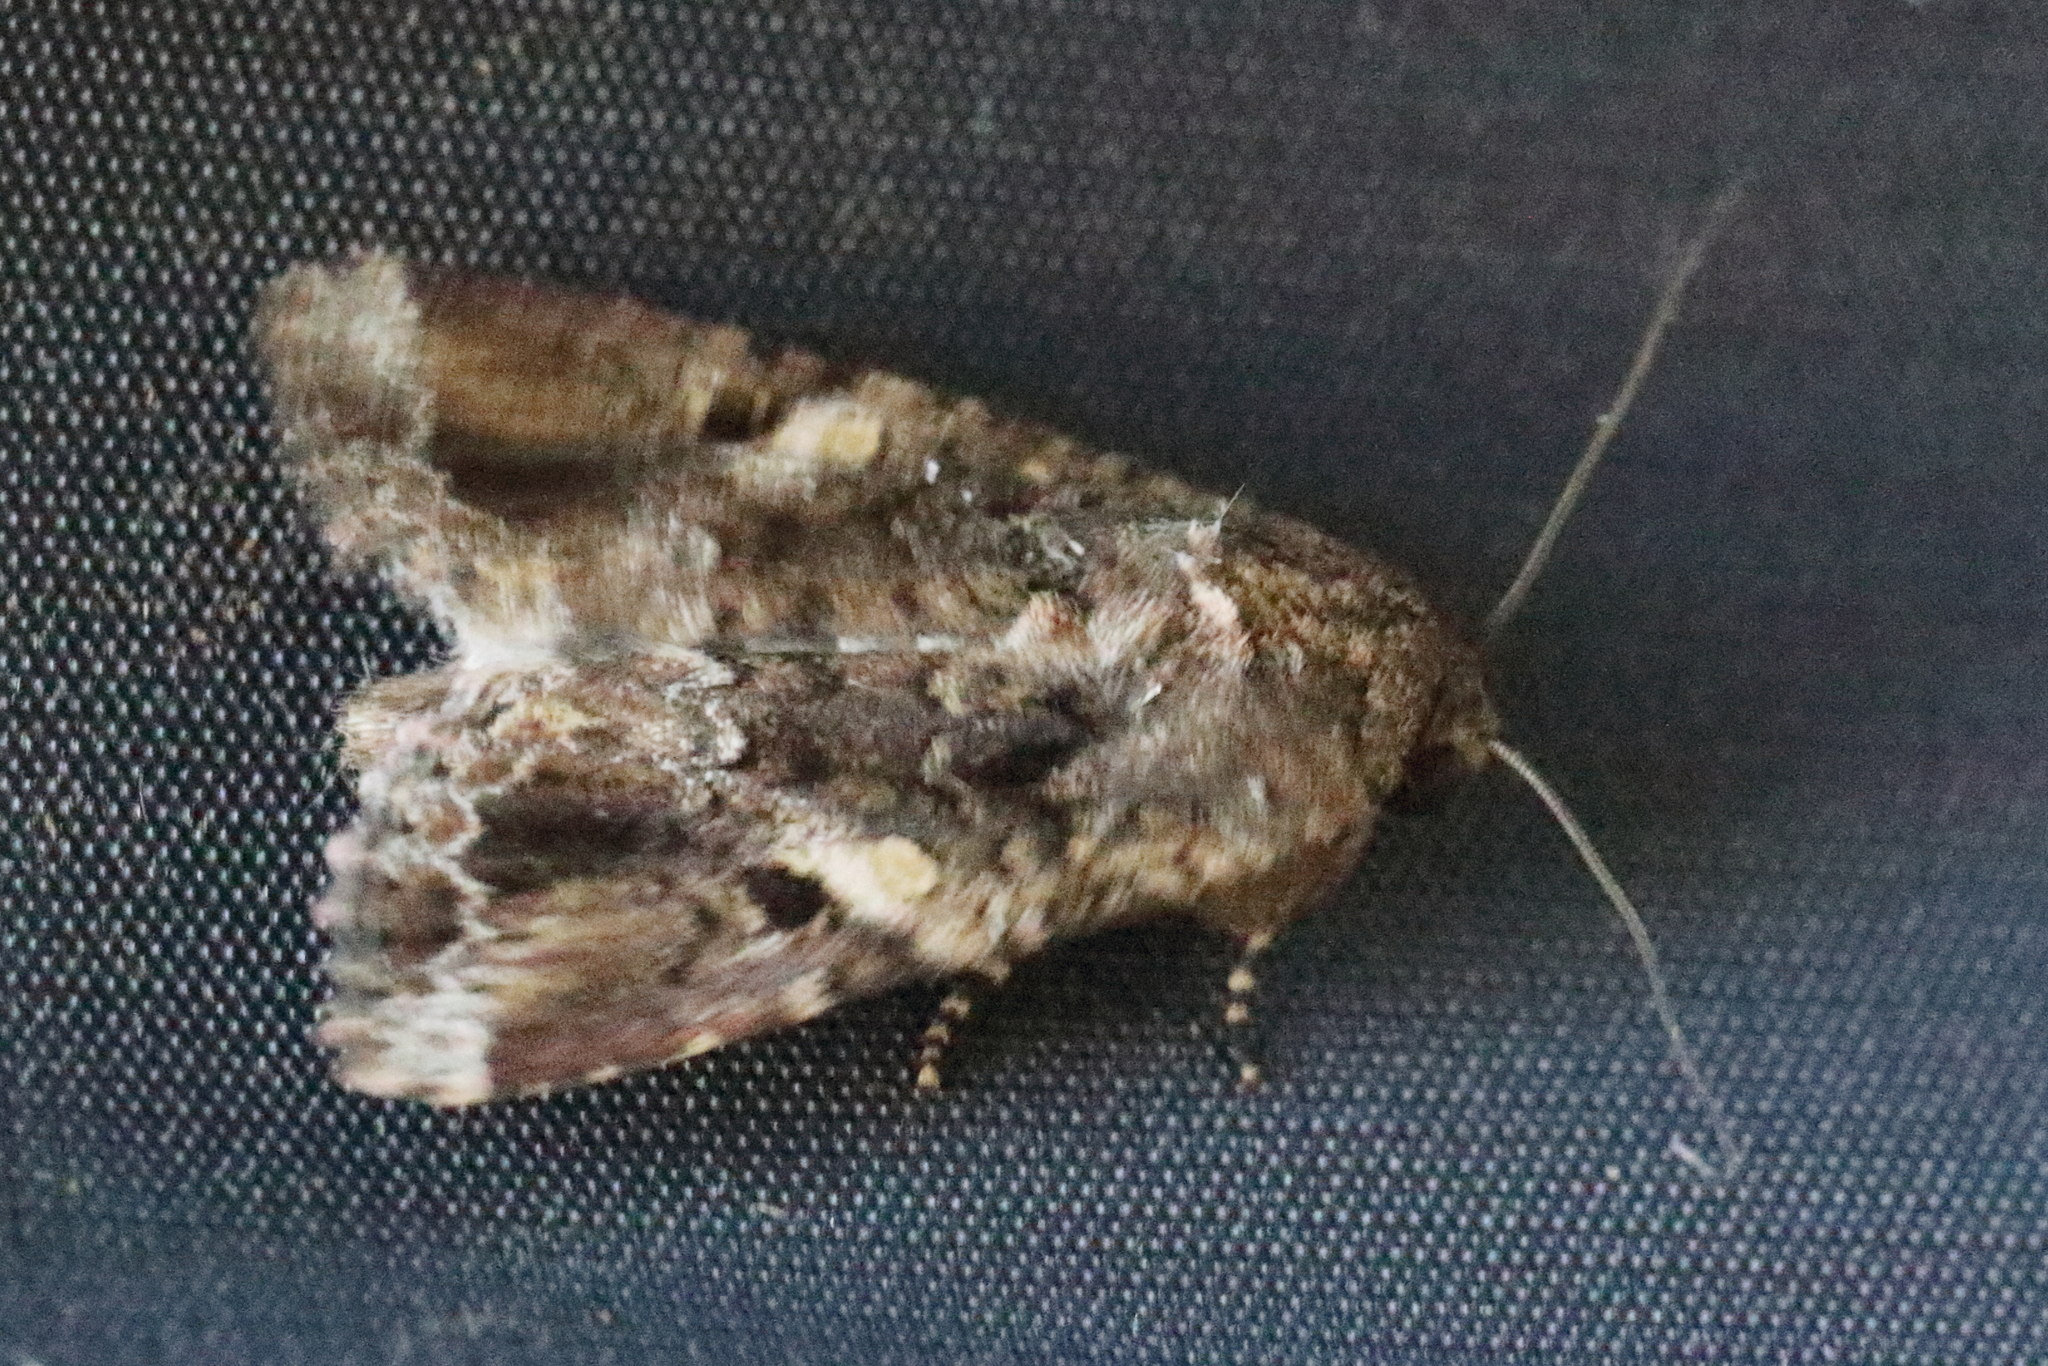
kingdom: Animalia
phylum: Arthropoda
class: Insecta
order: Lepidoptera
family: Noctuidae
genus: Spodoptera
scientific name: Spodoptera mauritia
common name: Lawn armyworm
